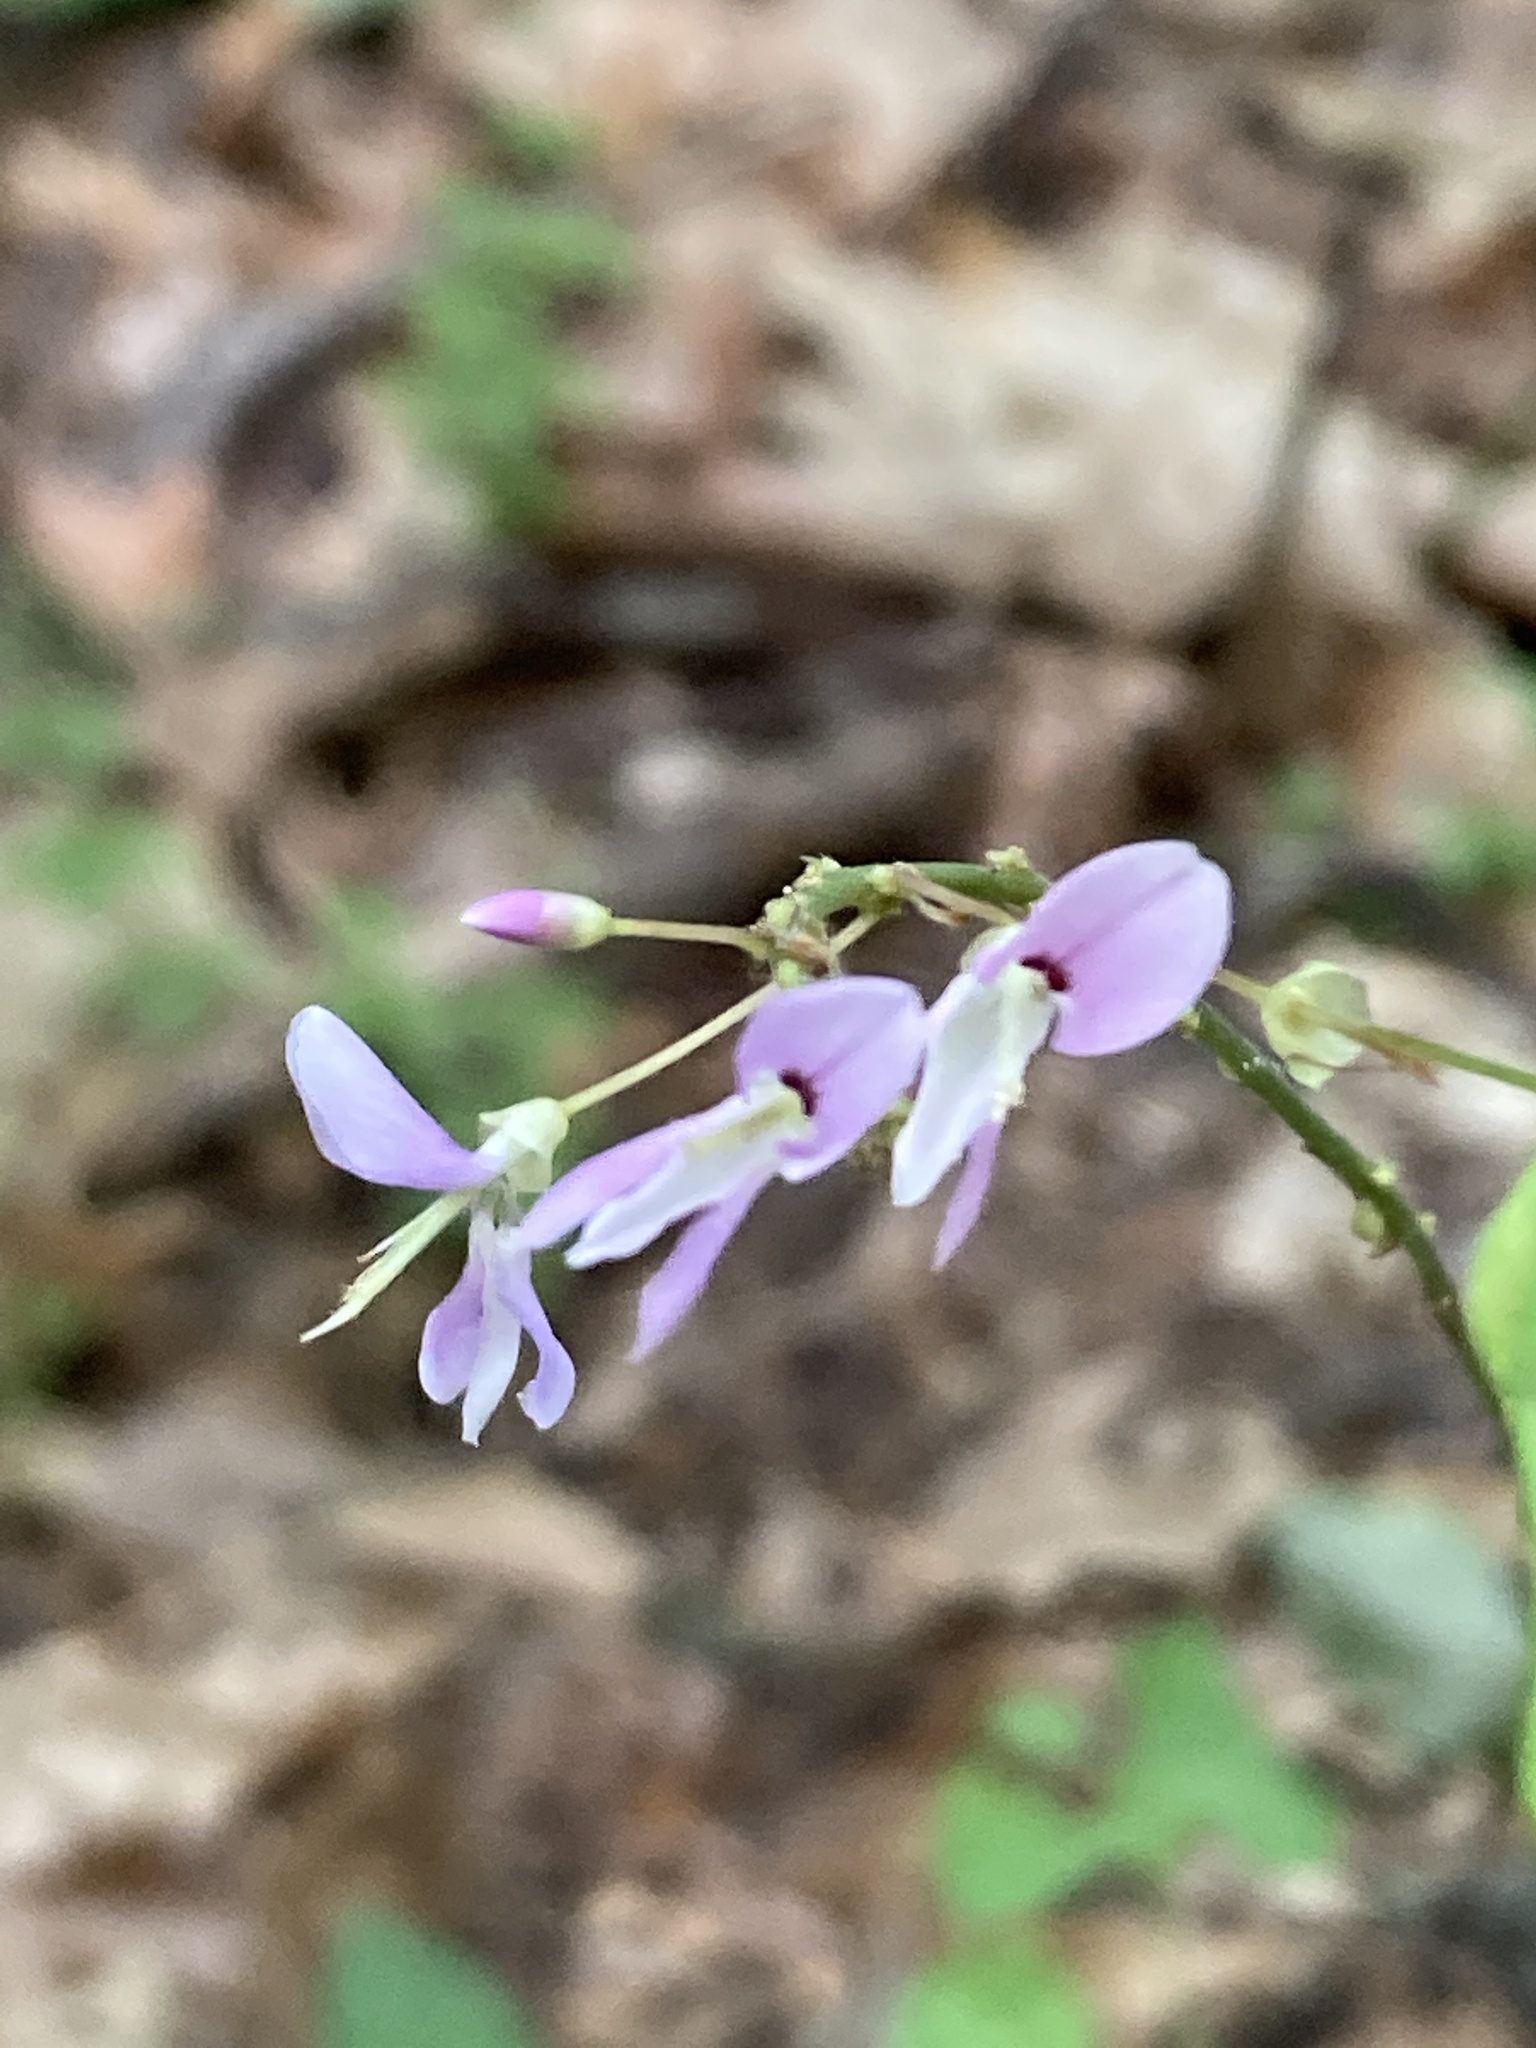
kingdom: Plantae
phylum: Tracheophyta
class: Magnoliopsida
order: Fabales
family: Fabaceae
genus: Hylodesmum
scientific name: Hylodesmum nudiflorum
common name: Bare-stemmed tick-trefoil
